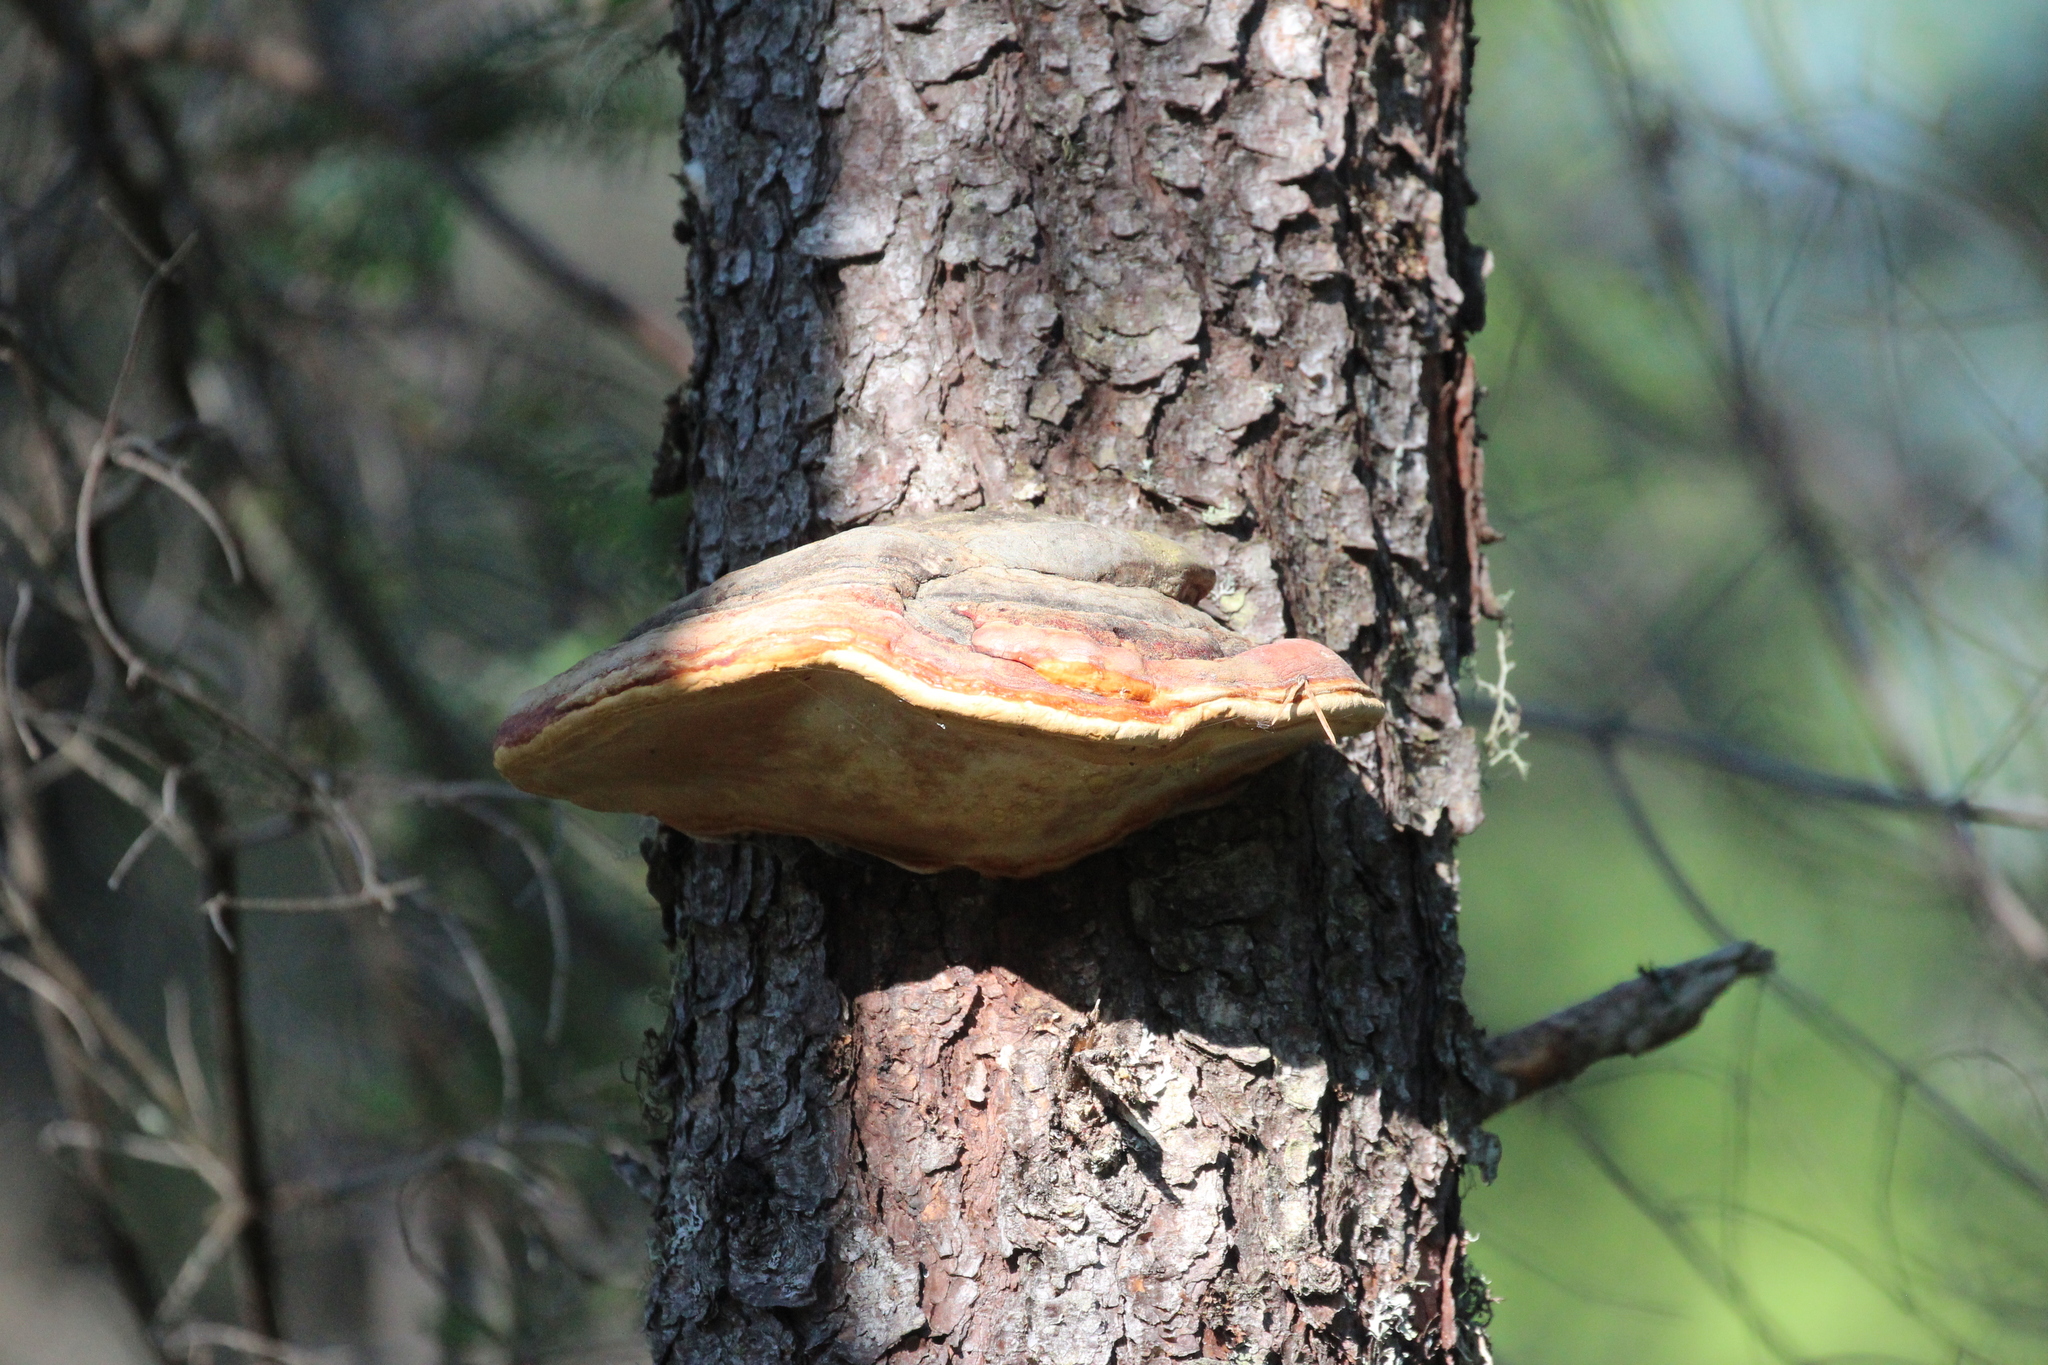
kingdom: Fungi
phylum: Basidiomycota
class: Agaricomycetes
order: Polyporales
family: Fomitopsidaceae
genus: Fomitopsis
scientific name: Fomitopsis mounceae
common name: Northern red belt
